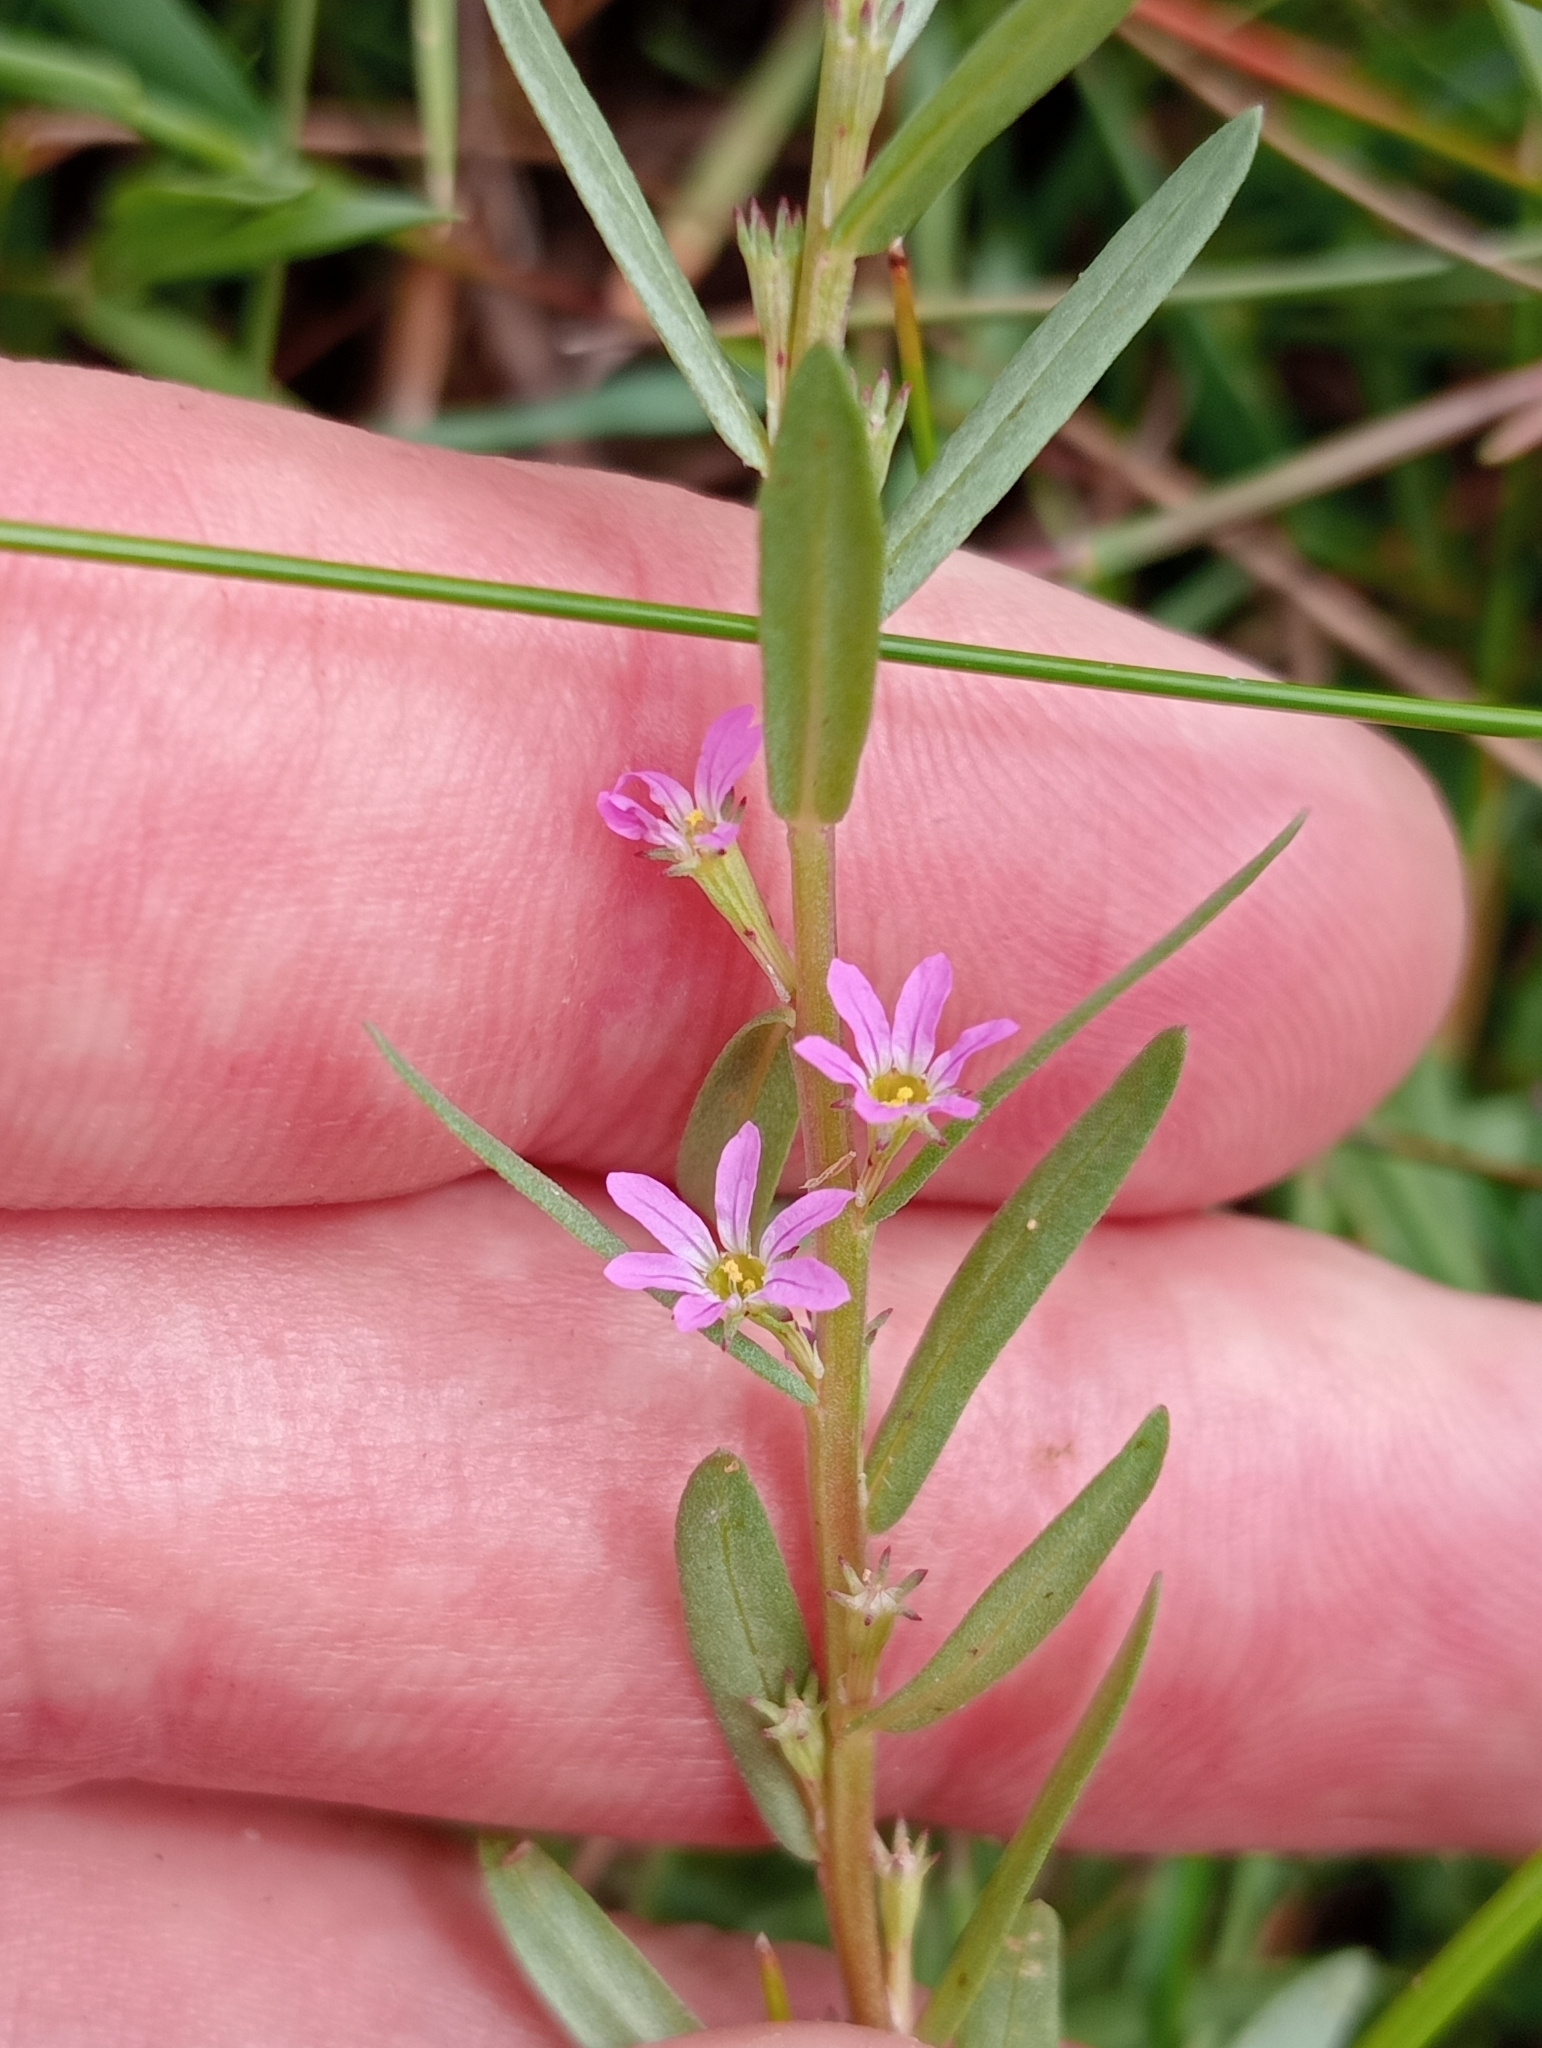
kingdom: Plantae
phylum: Tracheophyta
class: Magnoliopsida
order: Myrtales
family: Lythraceae
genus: Lythrum
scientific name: Lythrum hyssopifolia
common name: Grass-poly
